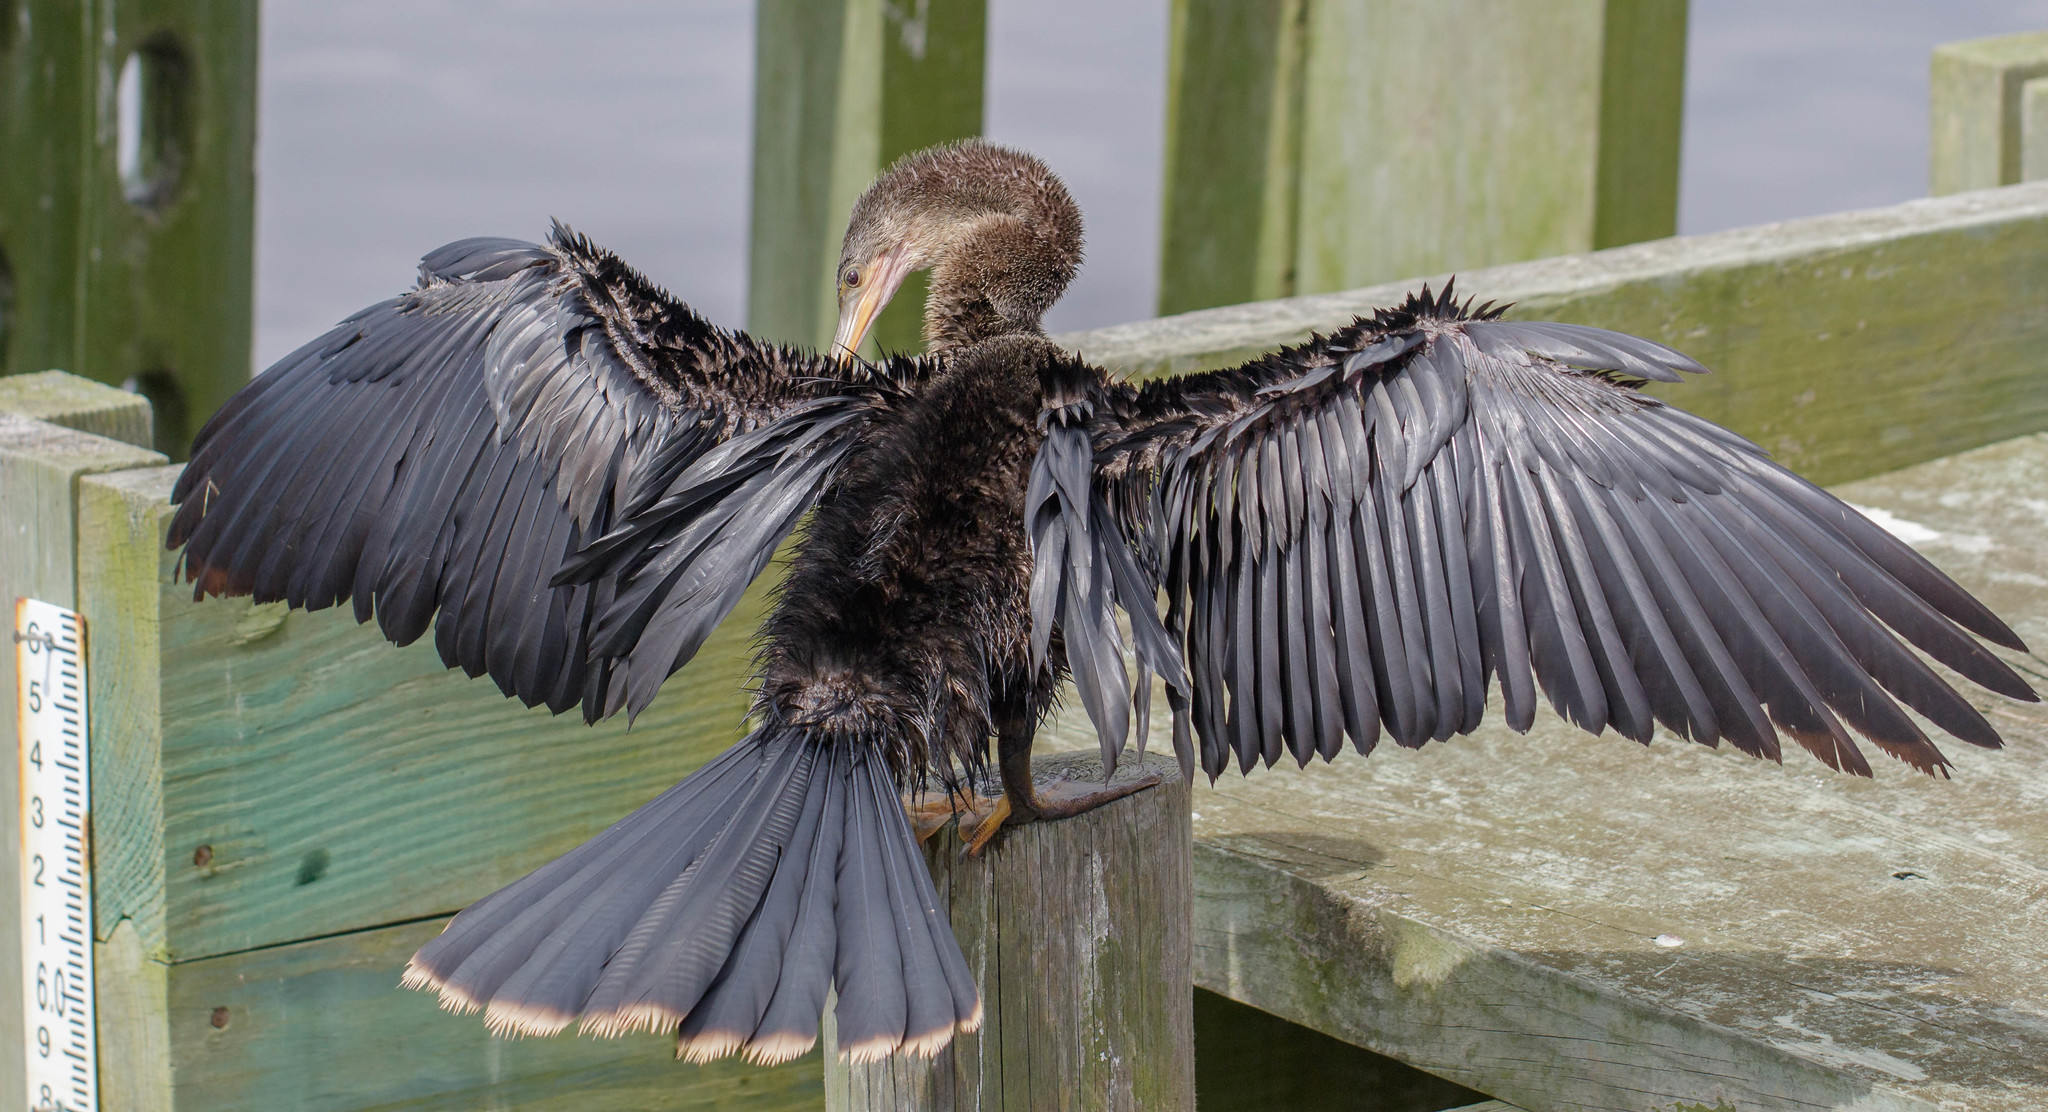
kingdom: Animalia
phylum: Chordata
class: Aves
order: Suliformes
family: Anhingidae
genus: Anhinga
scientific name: Anhinga anhinga
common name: Anhinga
